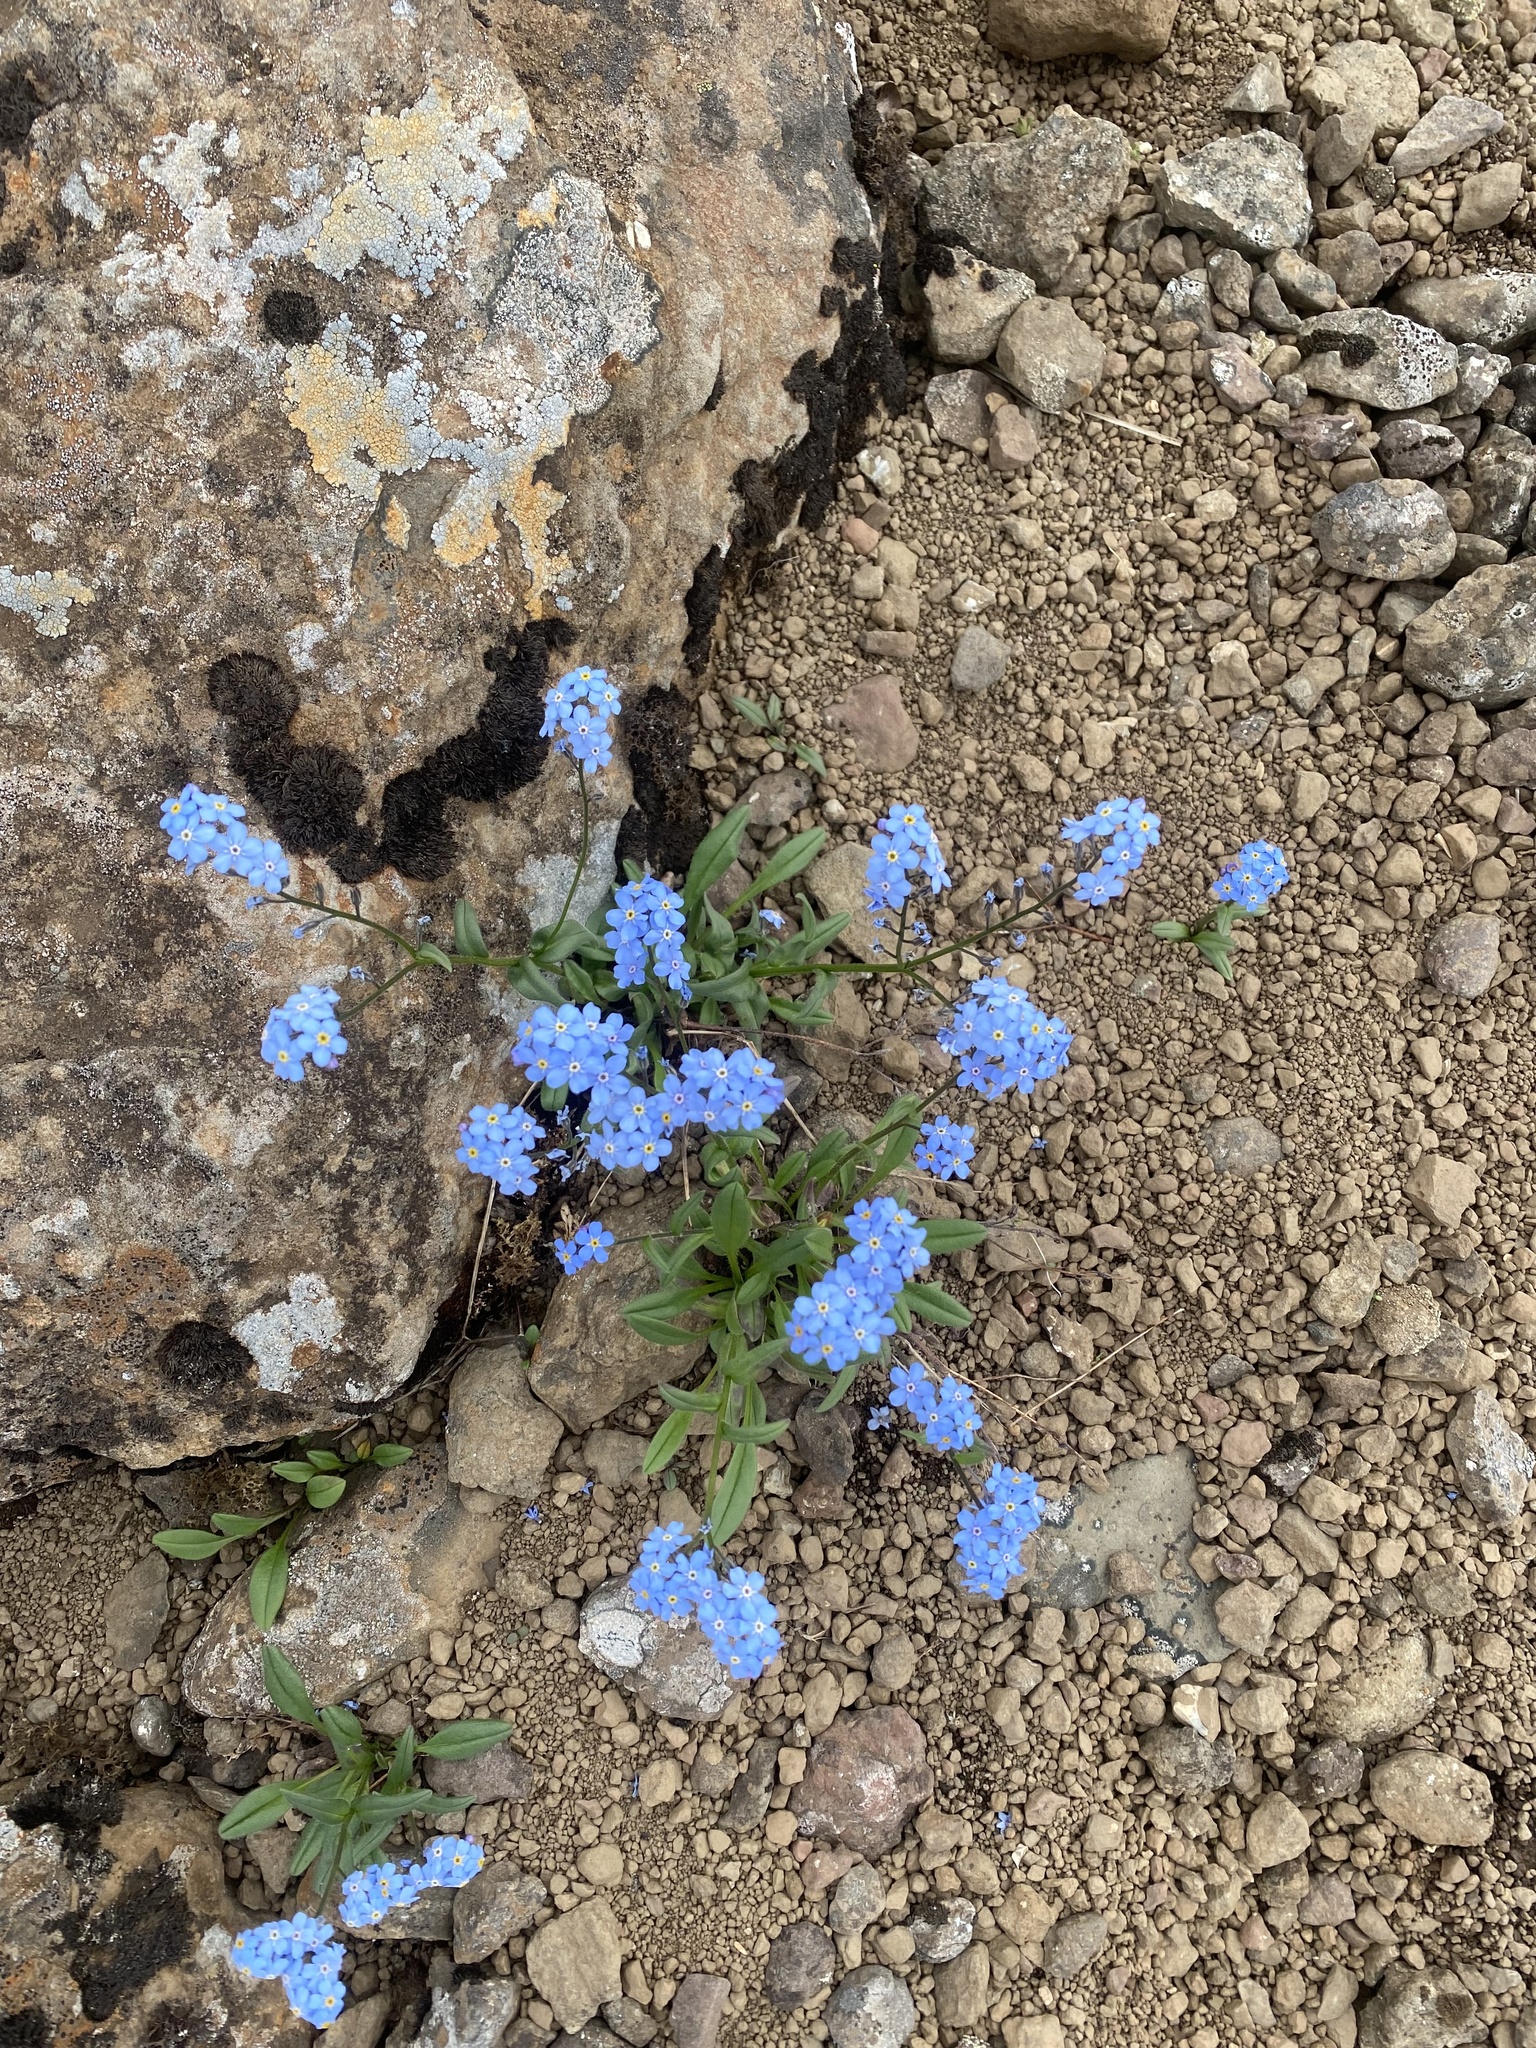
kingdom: Plantae
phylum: Tracheophyta
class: Magnoliopsida
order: Boraginales
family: Boraginaceae
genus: Myosotis
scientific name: Myosotis asiatica
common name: Asian forget-me-not
